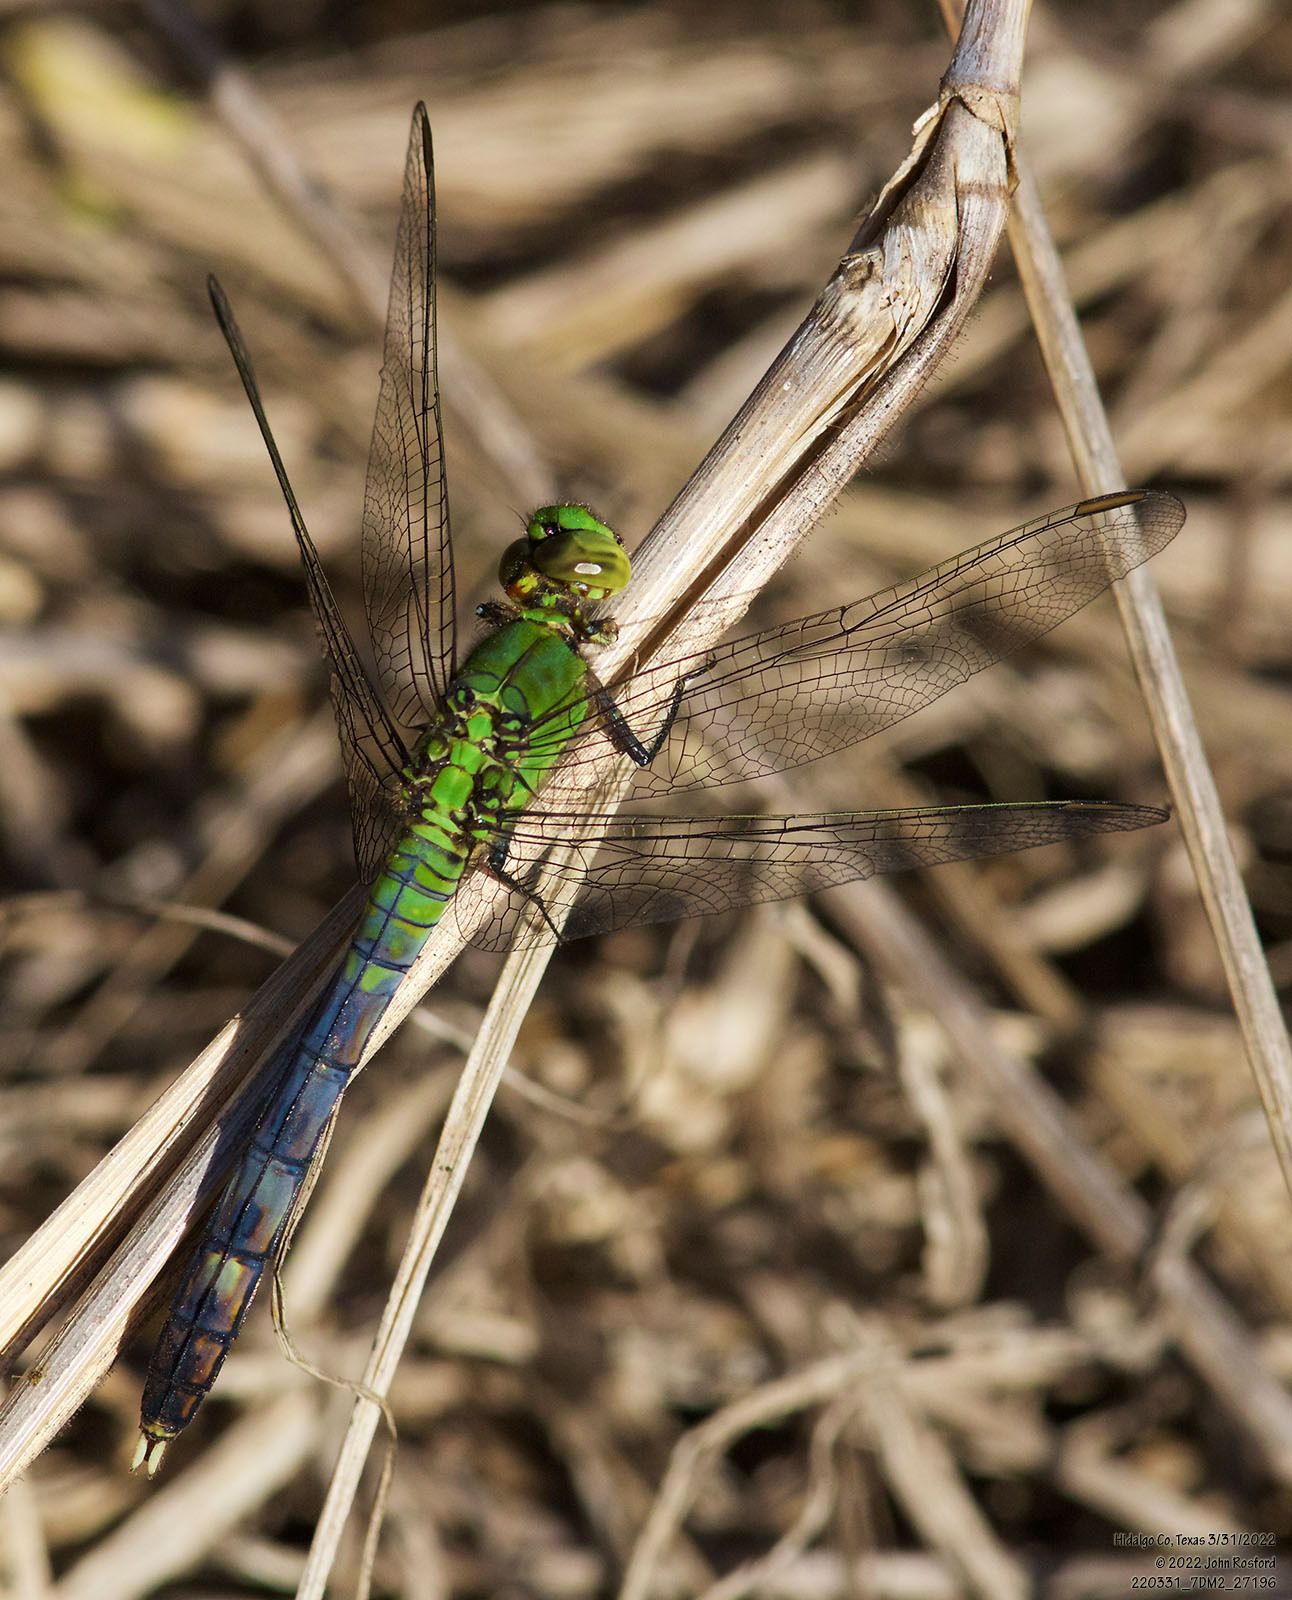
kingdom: Animalia
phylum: Arthropoda
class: Insecta
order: Odonata
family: Libellulidae
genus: Erythemis
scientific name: Erythemis simplicicollis
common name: Eastern pondhawk
